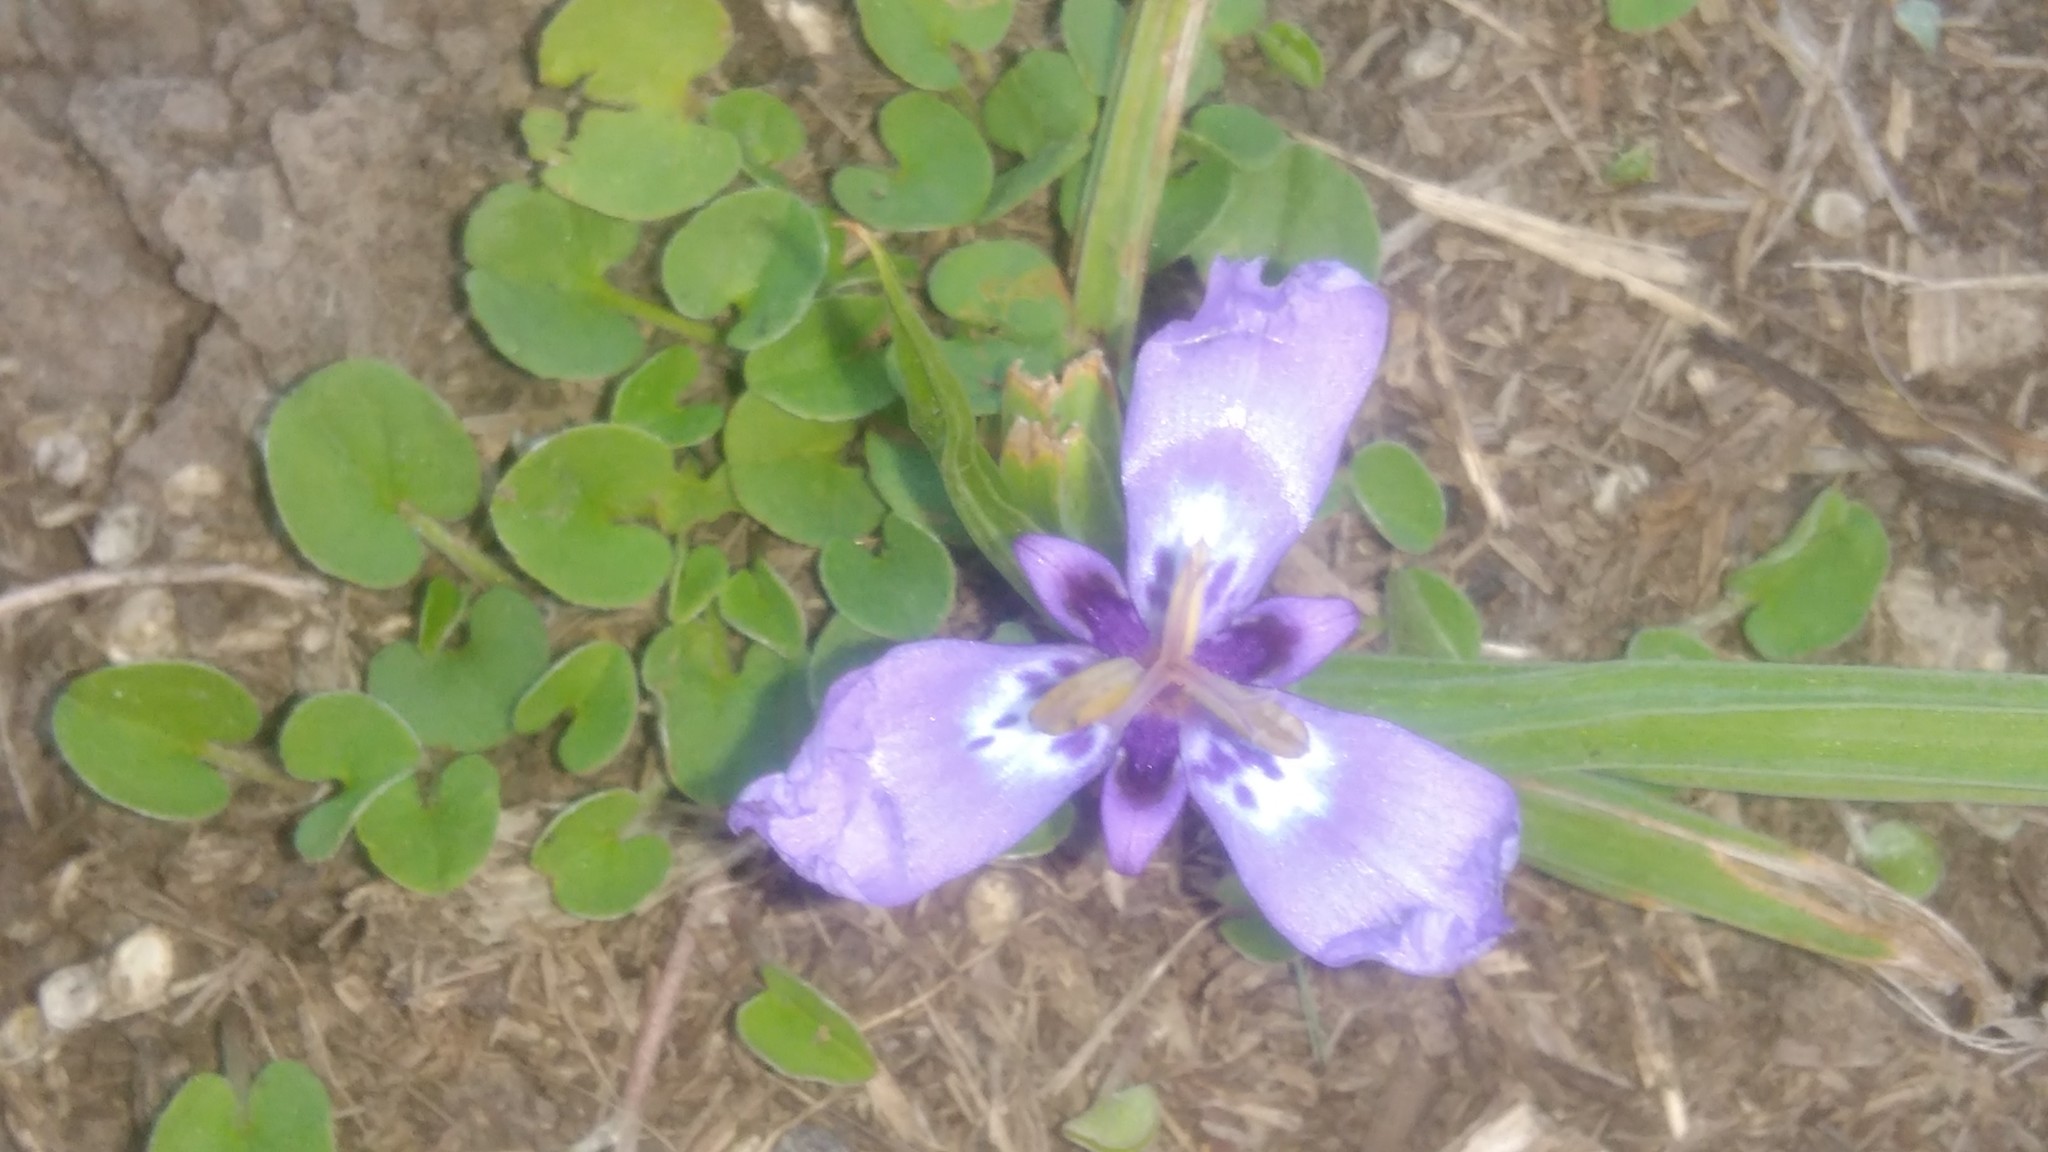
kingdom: Plantae
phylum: Tracheophyta
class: Liliopsida
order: Asparagales
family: Iridaceae
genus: Herbertia
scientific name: Herbertia lahue
